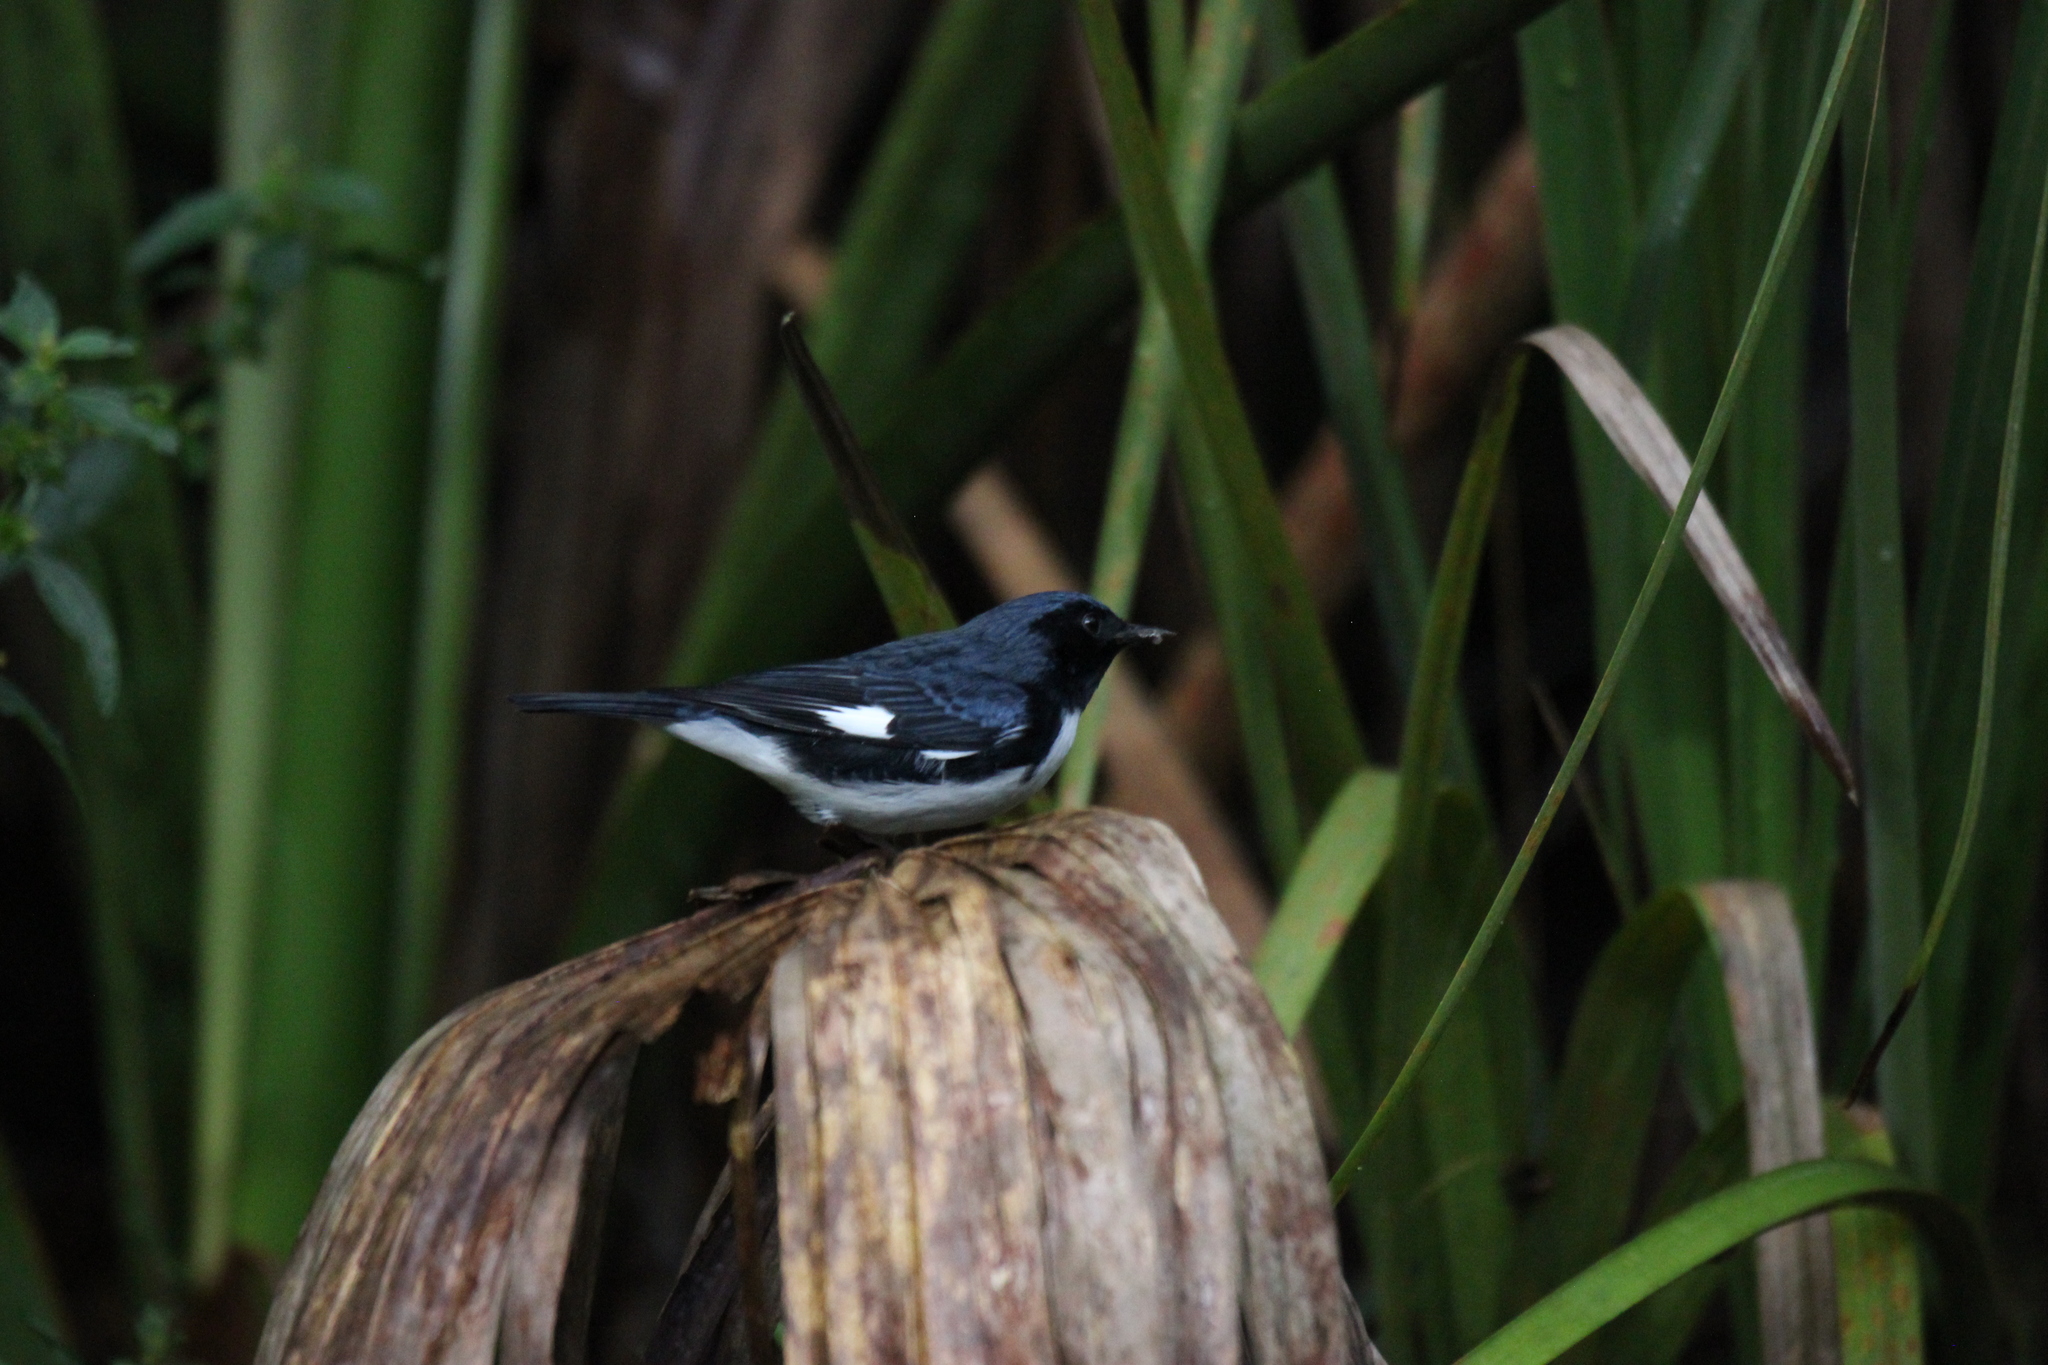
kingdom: Animalia
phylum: Chordata
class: Aves
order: Passeriformes
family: Parulidae
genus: Setophaga
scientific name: Setophaga caerulescens
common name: Black-throated blue warbler
